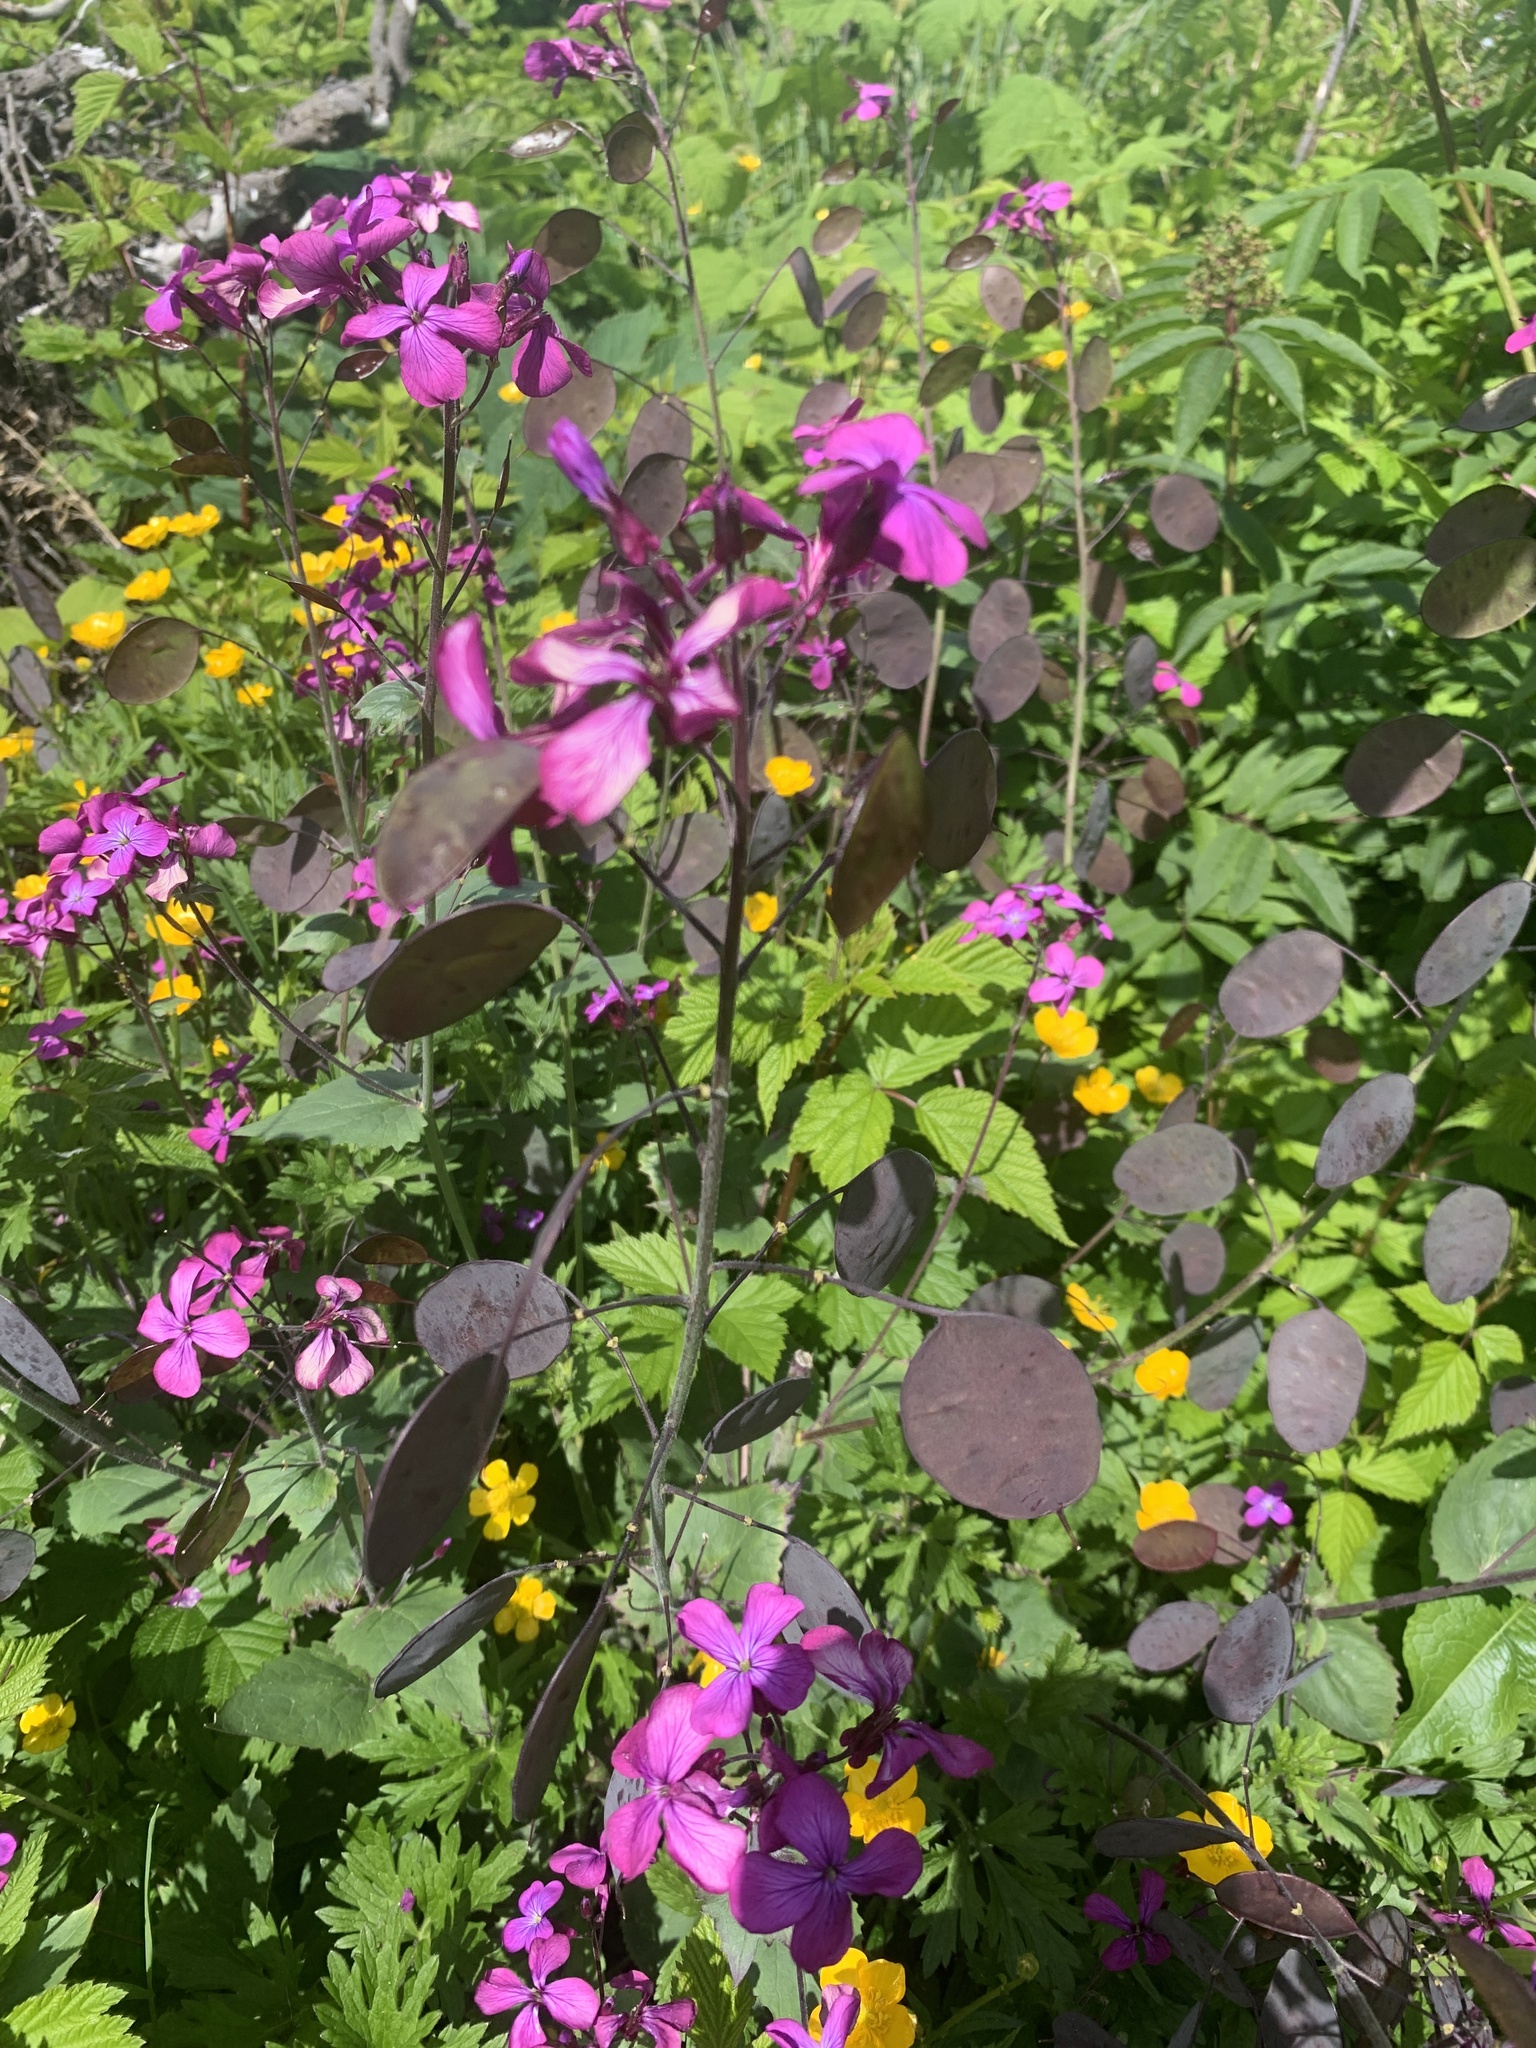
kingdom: Plantae
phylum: Tracheophyta
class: Magnoliopsida
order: Brassicales
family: Brassicaceae
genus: Lunaria
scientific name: Lunaria annua
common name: Honesty
